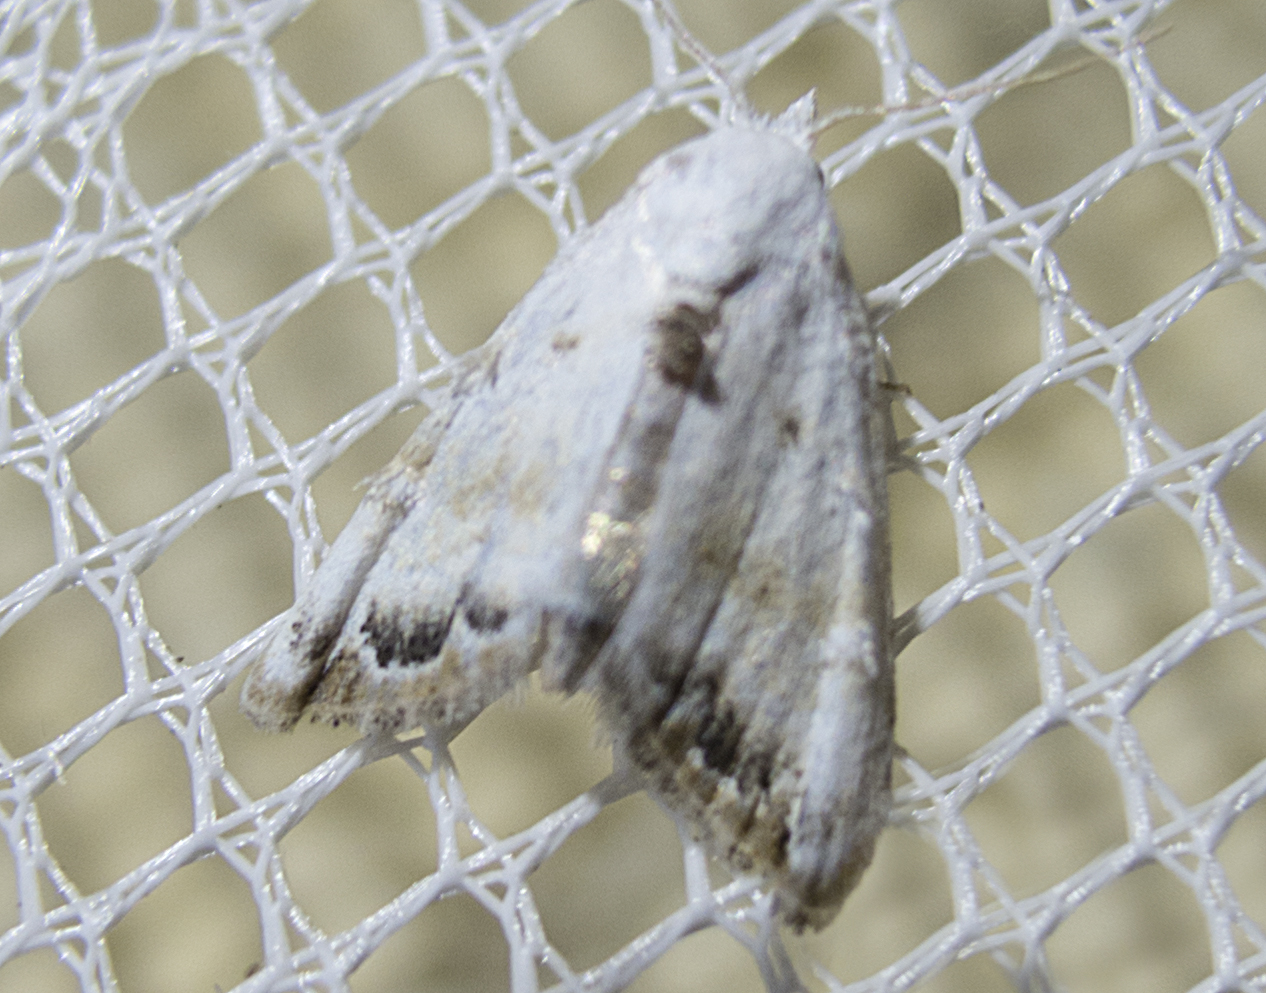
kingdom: Animalia
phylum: Arthropoda
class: Insecta
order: Lepidoptera
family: Nolidae
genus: Nola
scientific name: Nola chlamitulalis
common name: Jersey black arches
